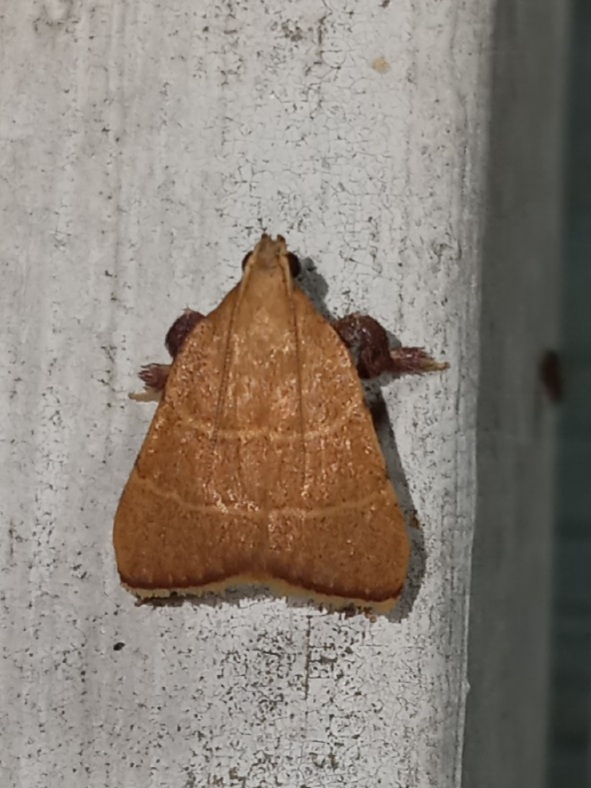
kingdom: Animalia
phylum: Arthropoda
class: Insecta
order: Lepidoptera
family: Pyralidae
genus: Parachma
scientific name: Parachma ochracealis
